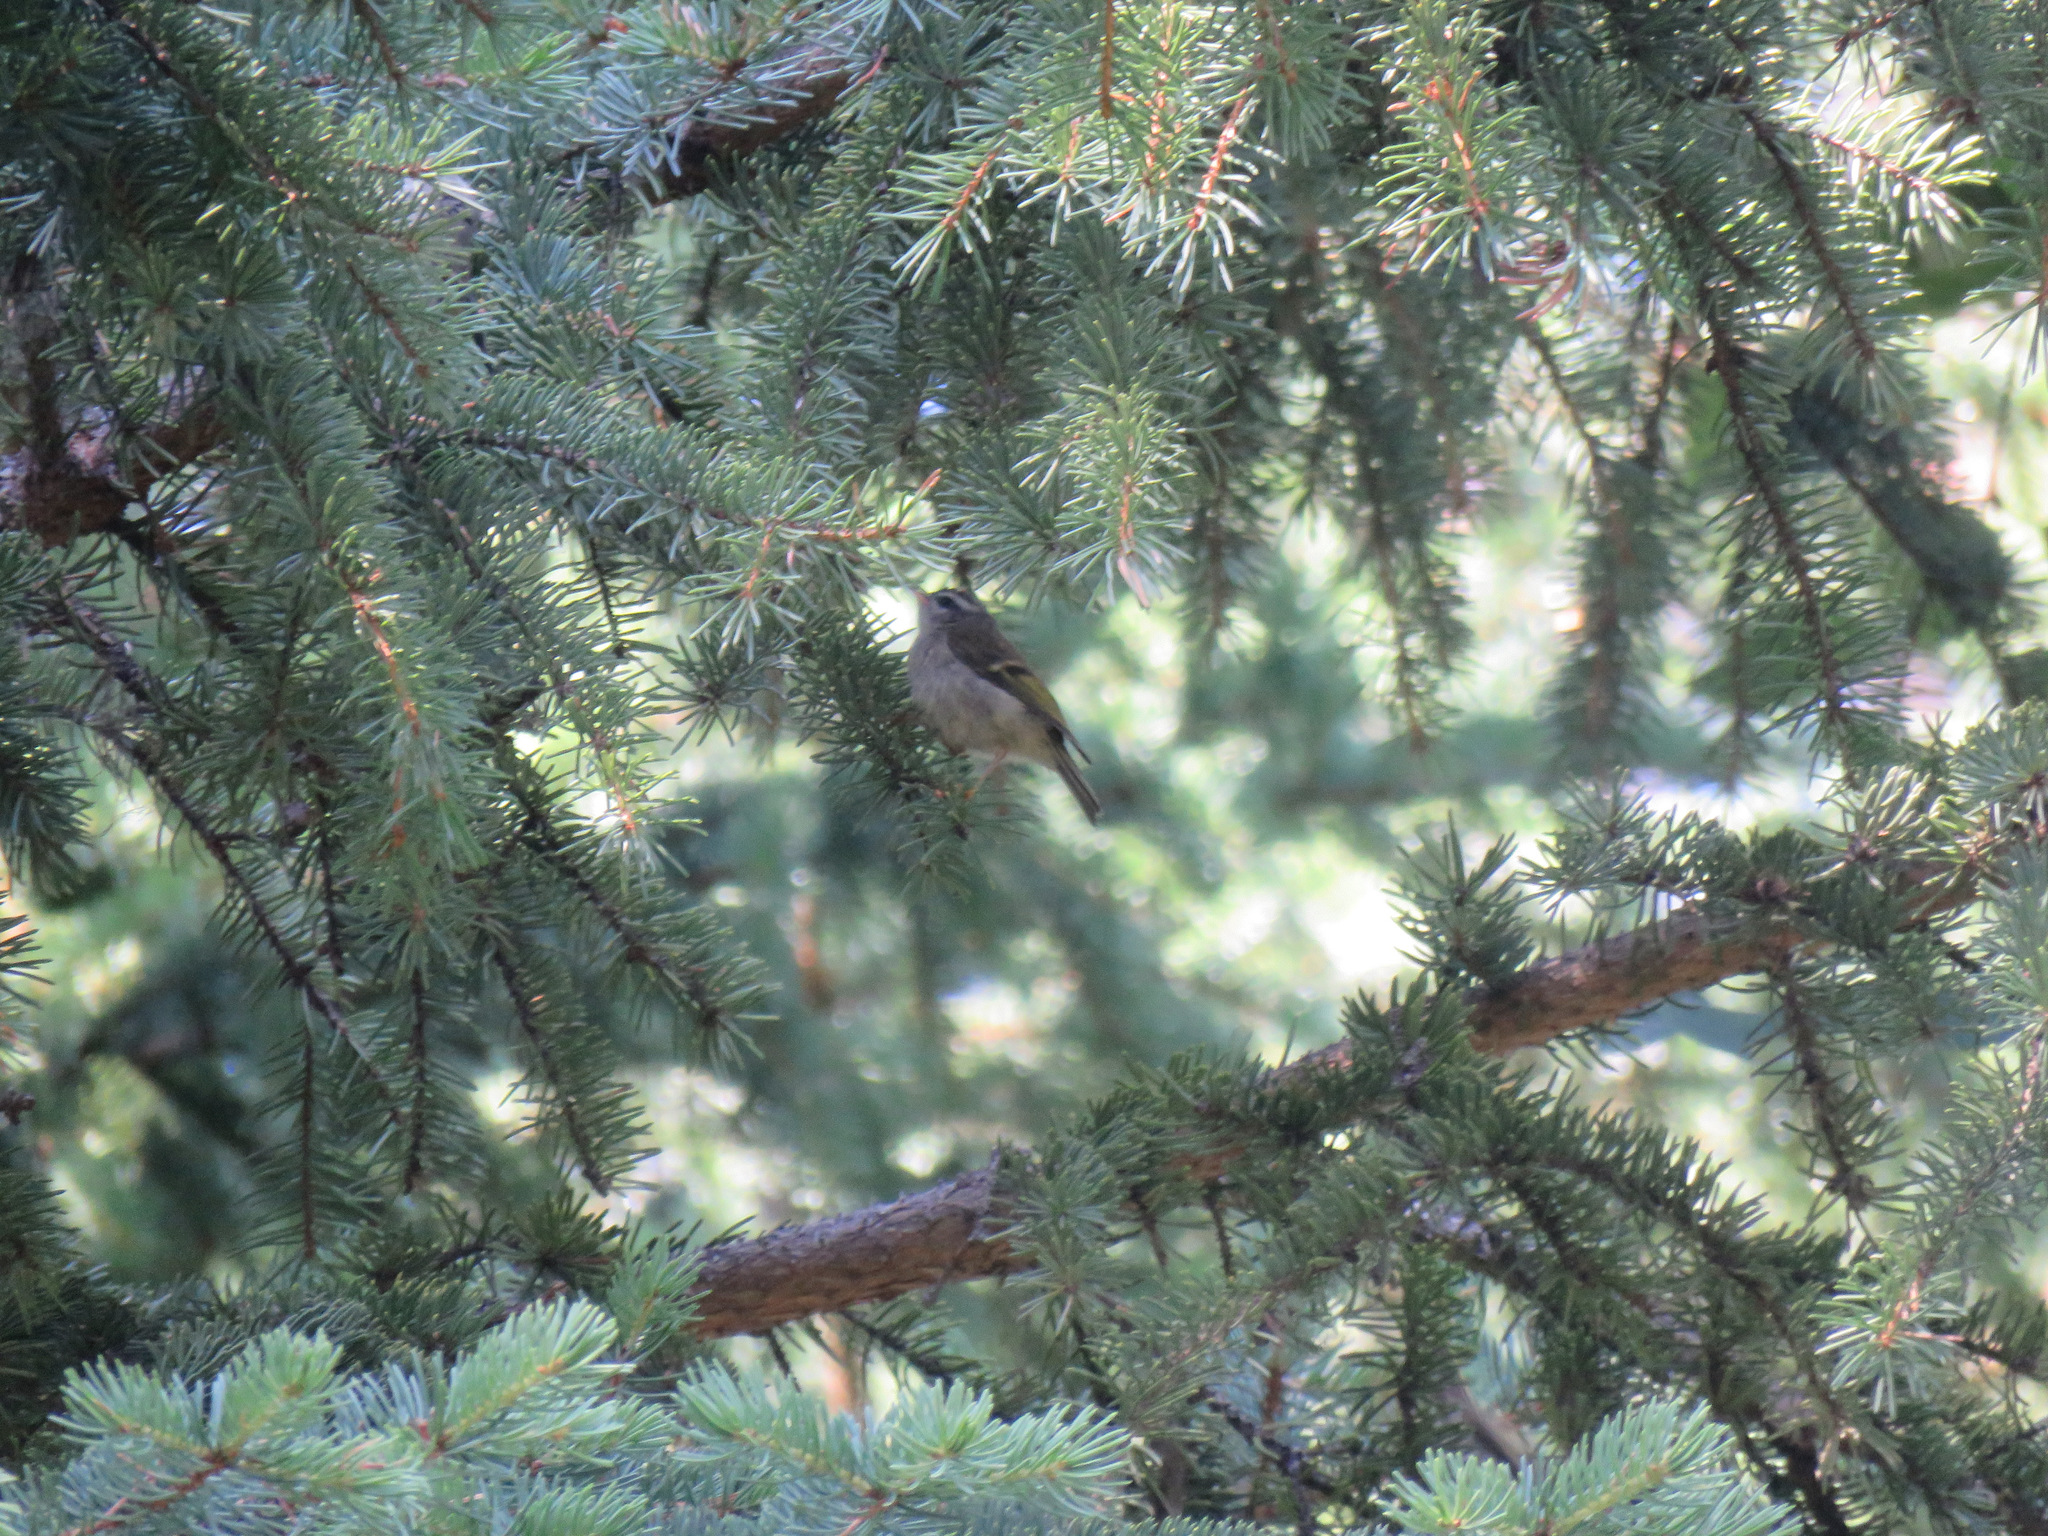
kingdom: Animalia
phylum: Chordata
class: Aves
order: Passeriformes
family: Regulidae
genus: Regulus
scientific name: Regulus satrapa
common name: Golden-crowned kinglet
